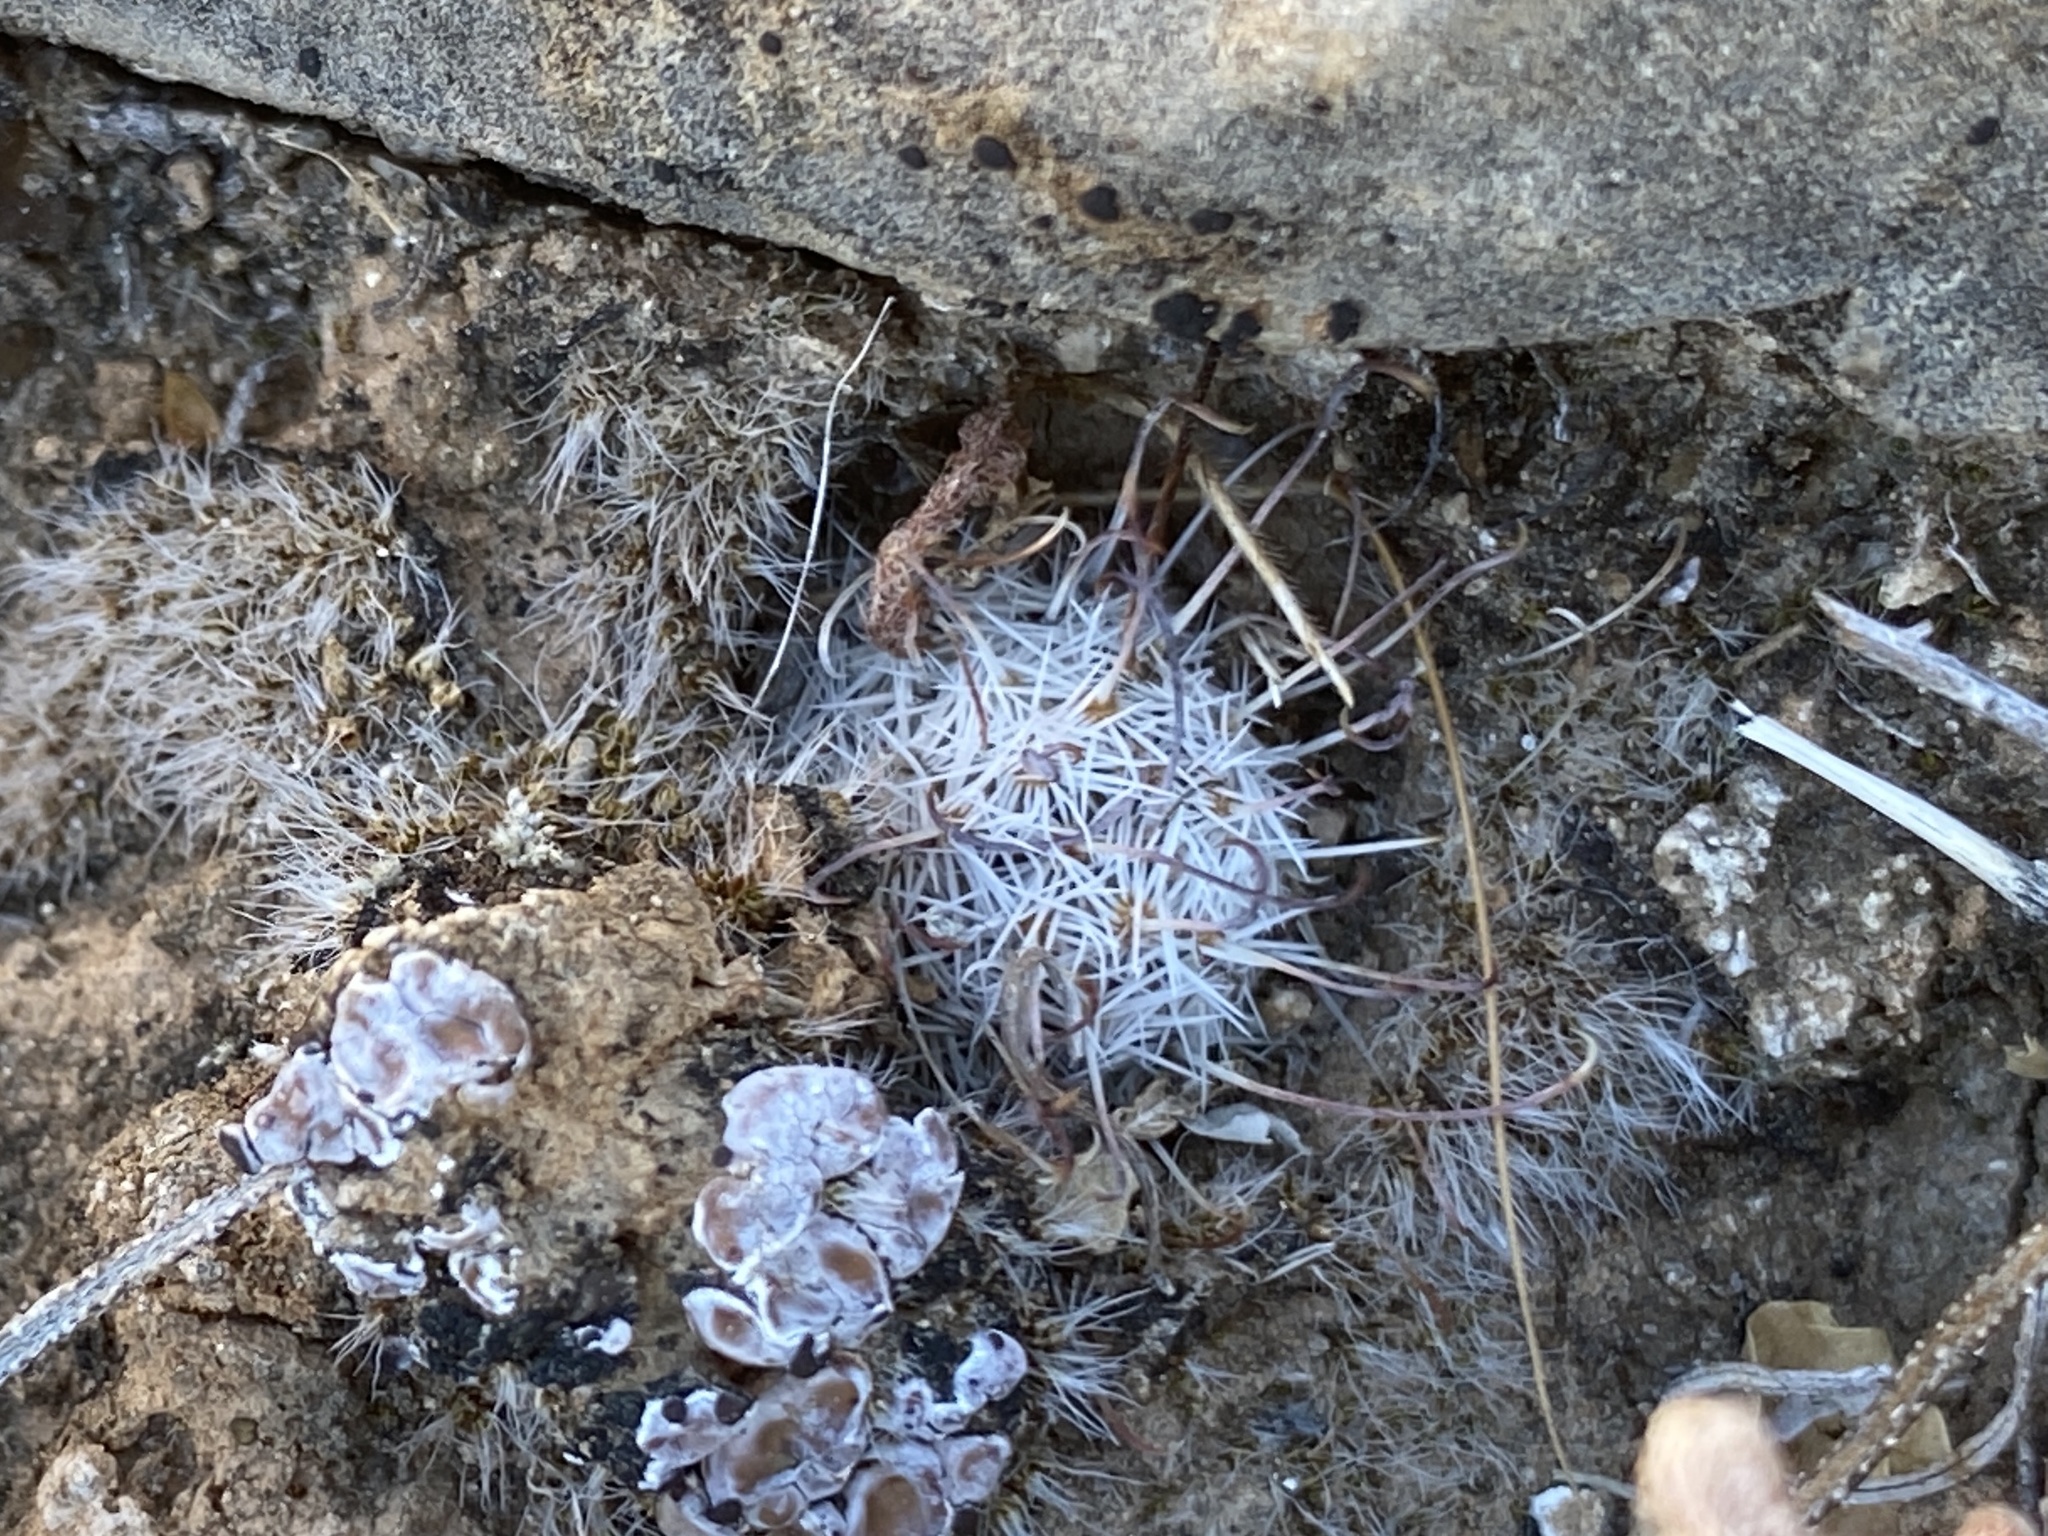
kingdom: Plantae
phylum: Tracheophyta
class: Magnoliopsida
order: Caryophyllales
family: Cactaceae
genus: Cochemiea
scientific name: Cochemiea grahamii
